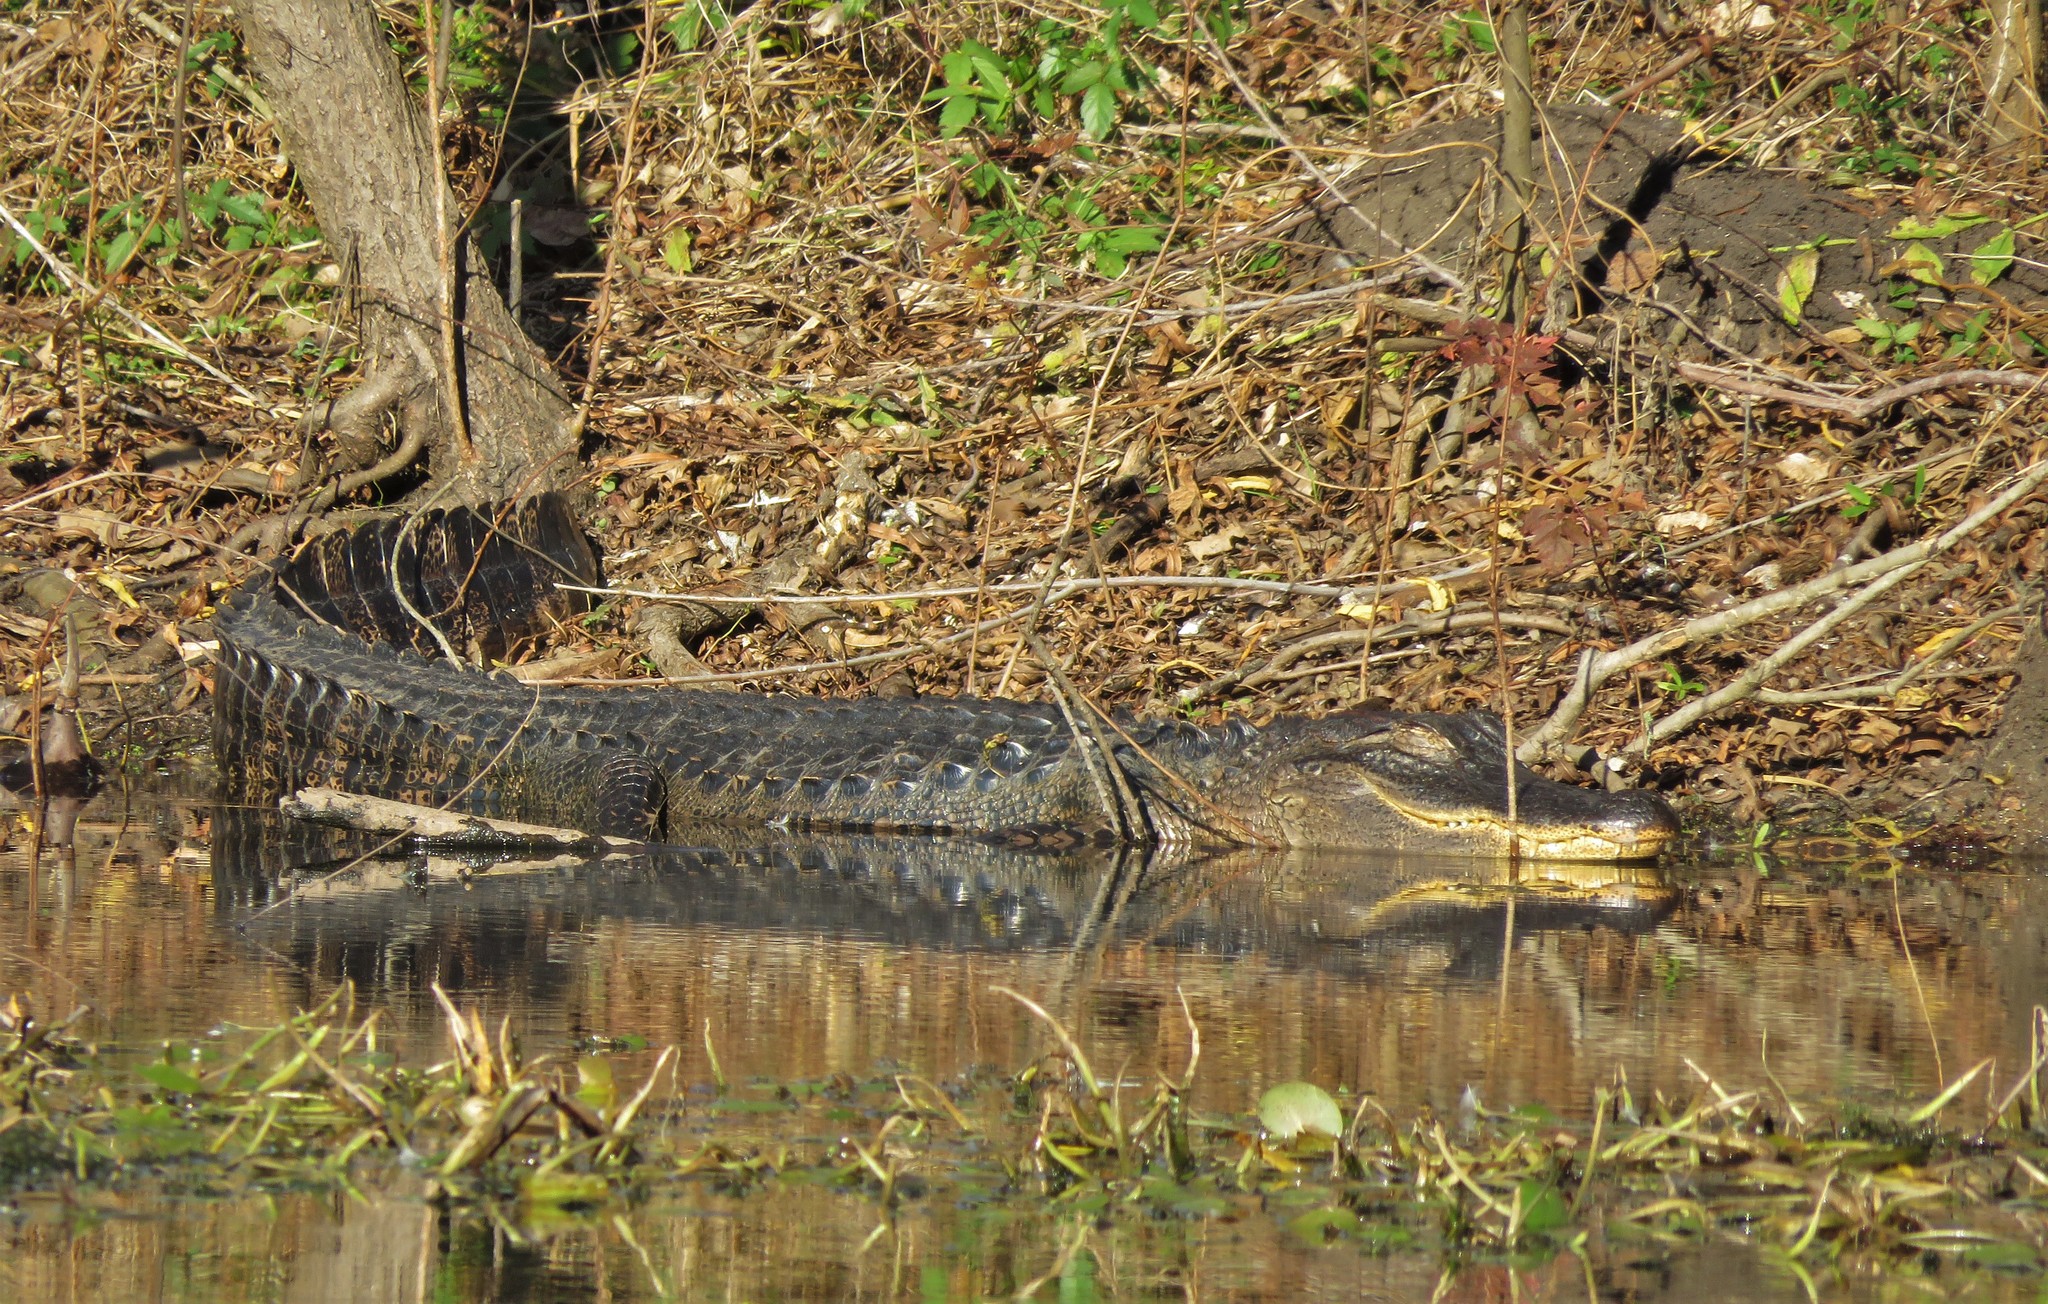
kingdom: Animalia
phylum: Chordata
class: Crocodylia
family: Alligatoridae
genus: Alligator
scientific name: Alligator mississippiensis
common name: American alligator
